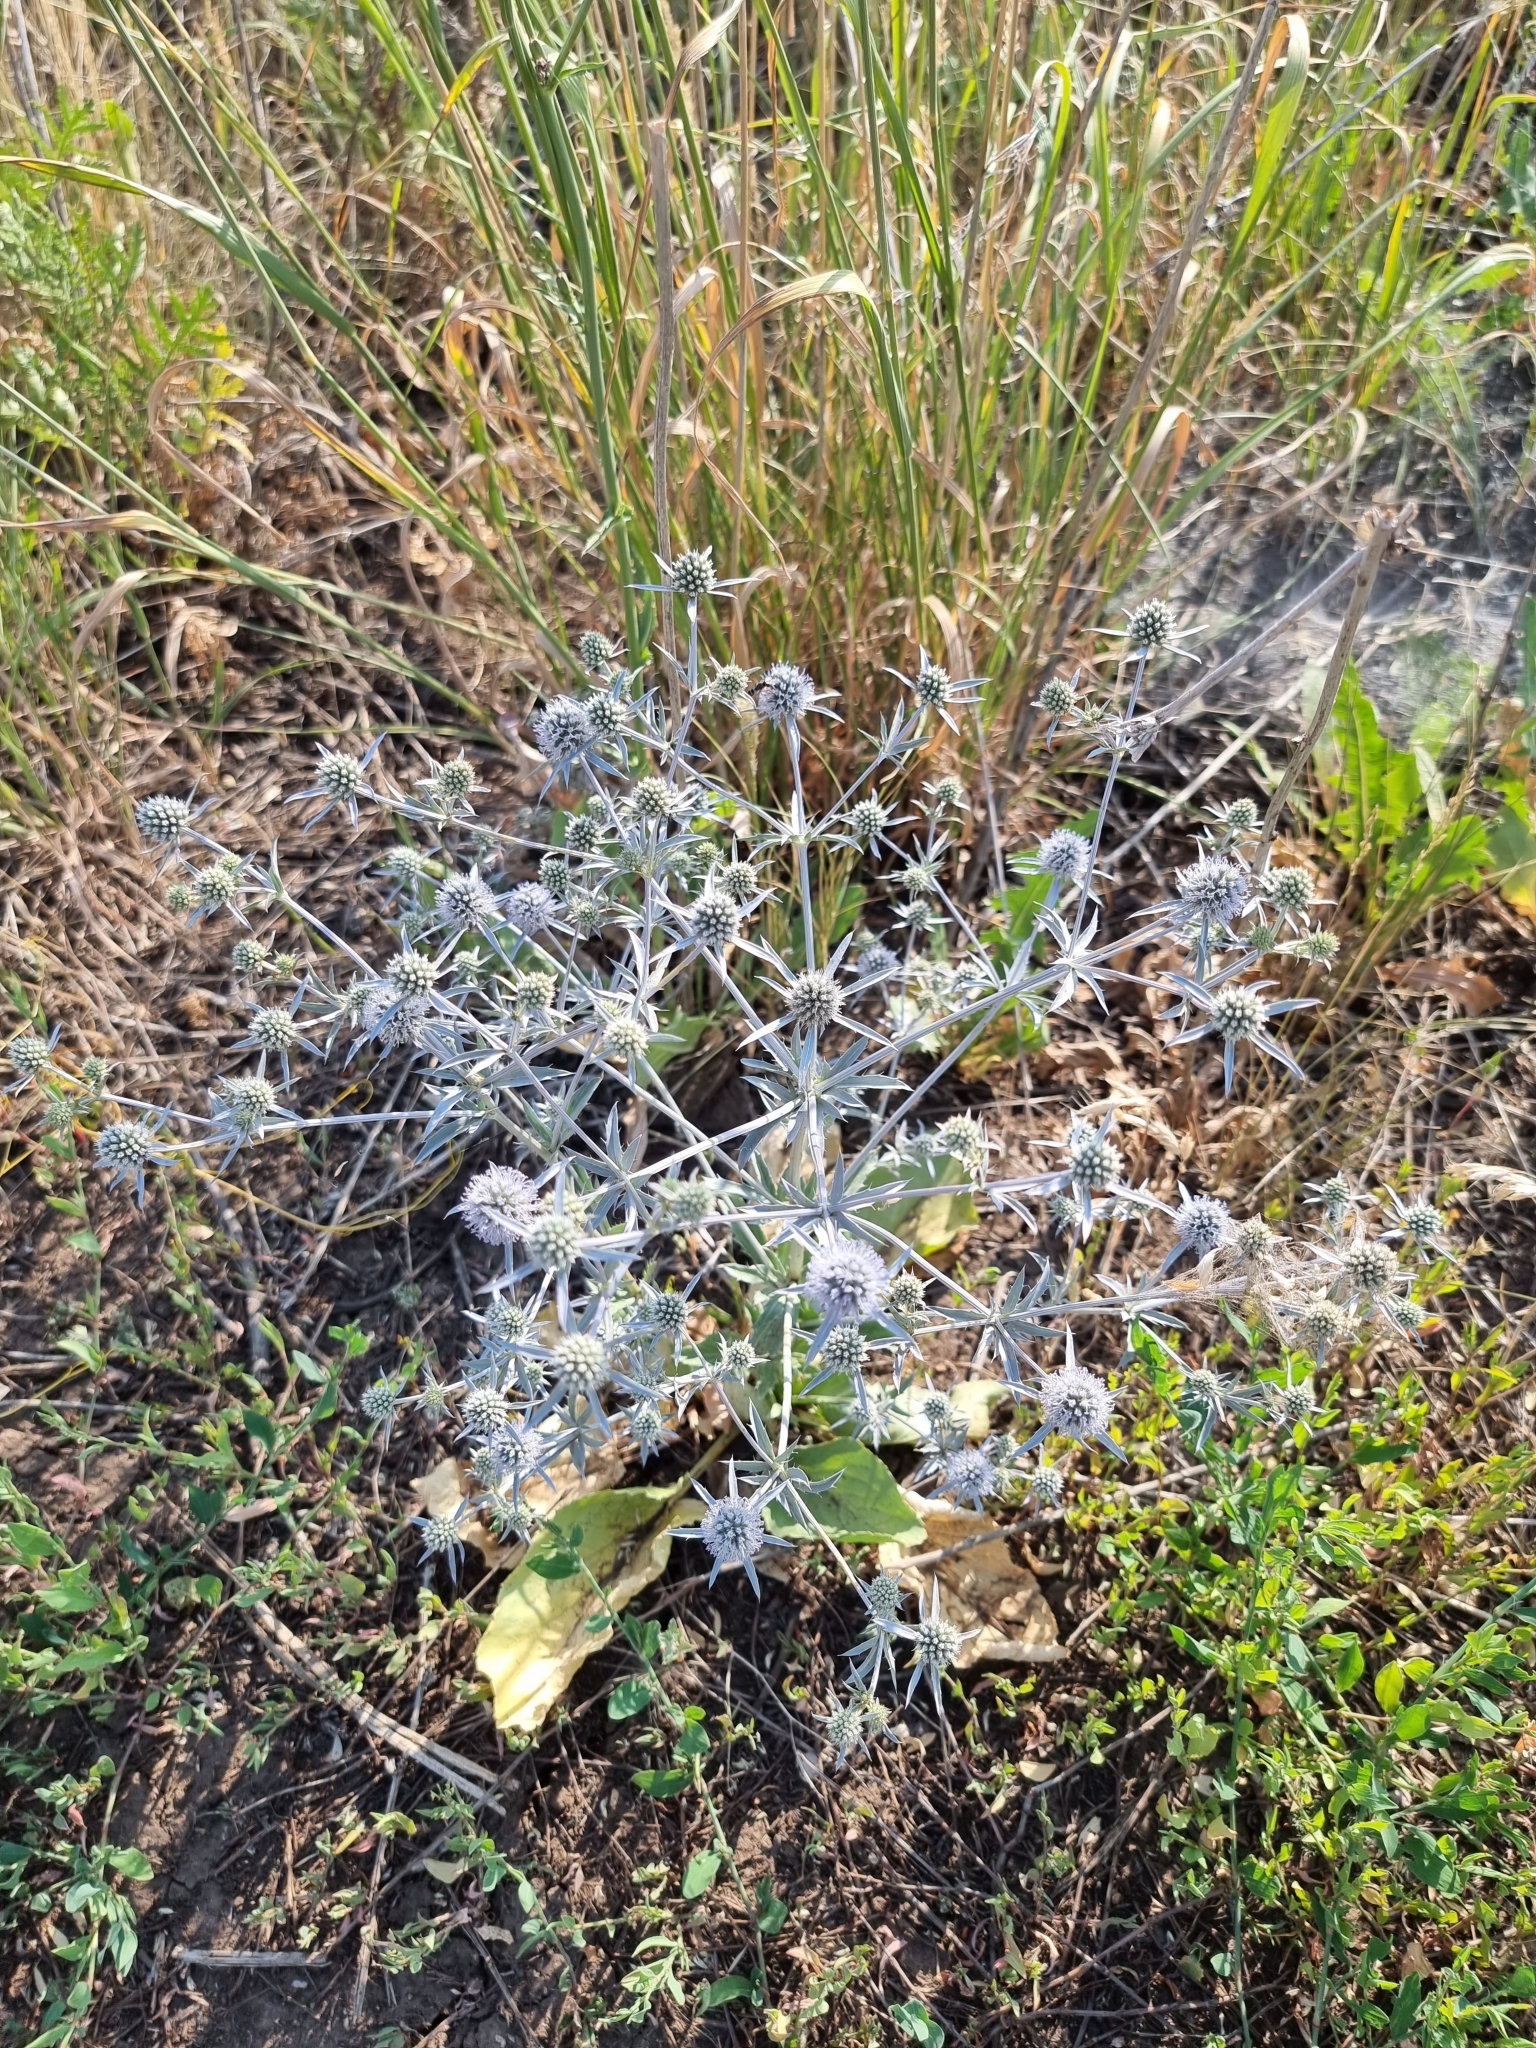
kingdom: Plantae
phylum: Tracheophyta
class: Magnoliopsida
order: Apiales
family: Apiaceae
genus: Eryngium
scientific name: Eryngium planum
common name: Blue eryngo
